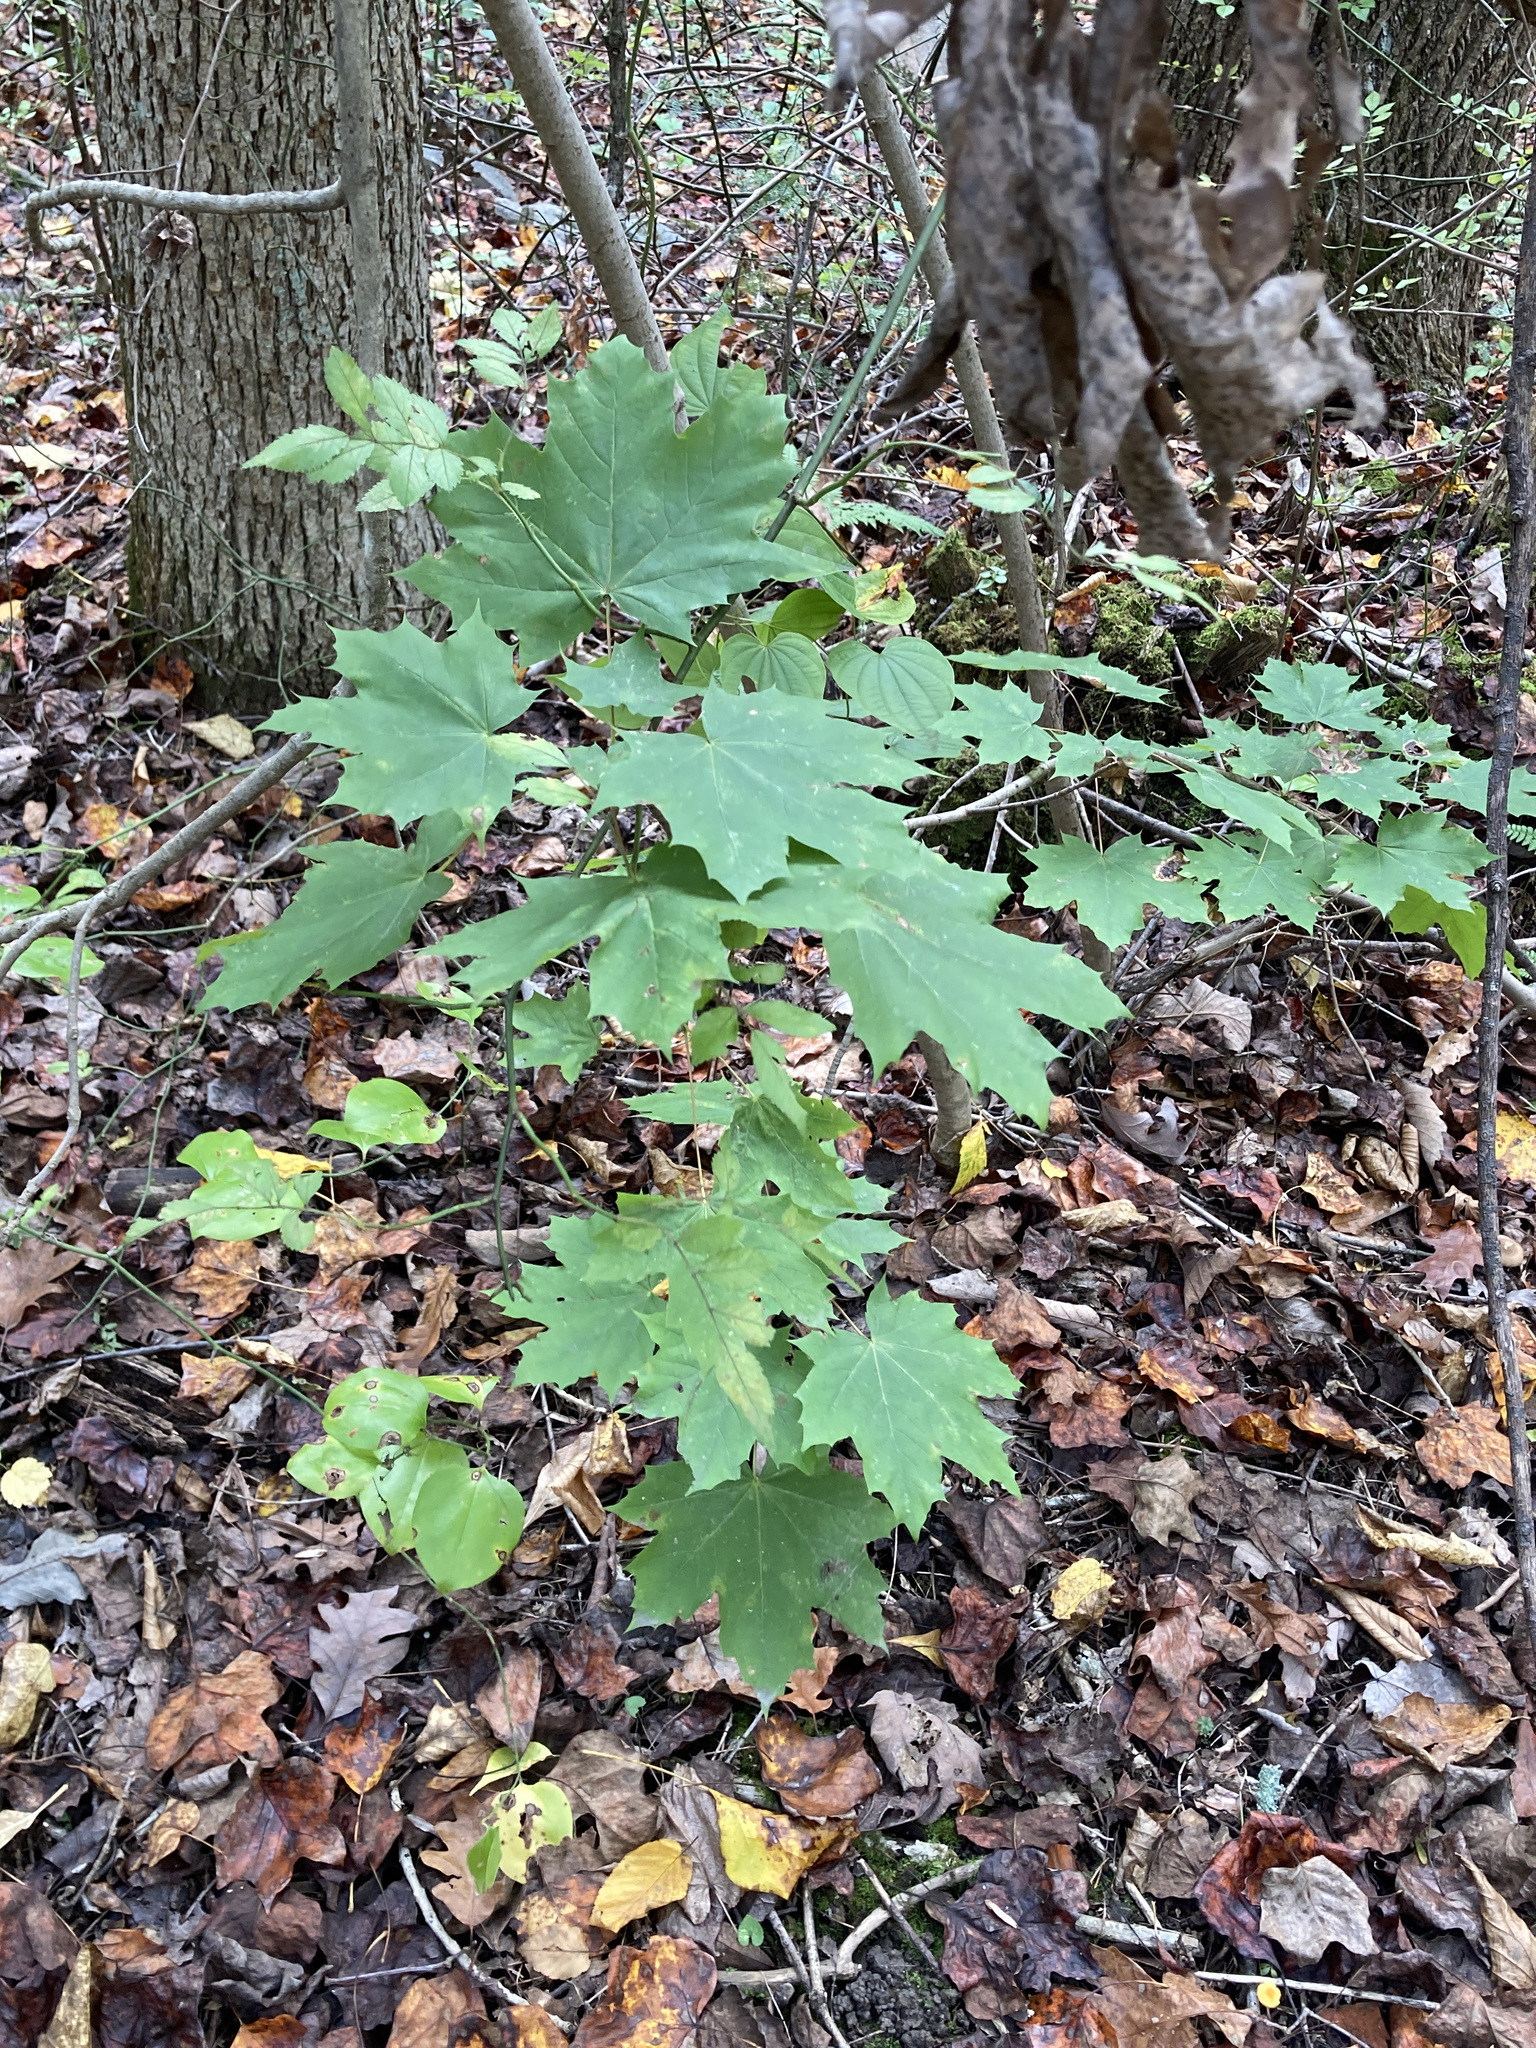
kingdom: Plantae
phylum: Tracheophyta
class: Magnoliopsida
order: Sapindales
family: Sapindaceae
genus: Acer
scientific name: Acer platanoides
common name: Norway maple
